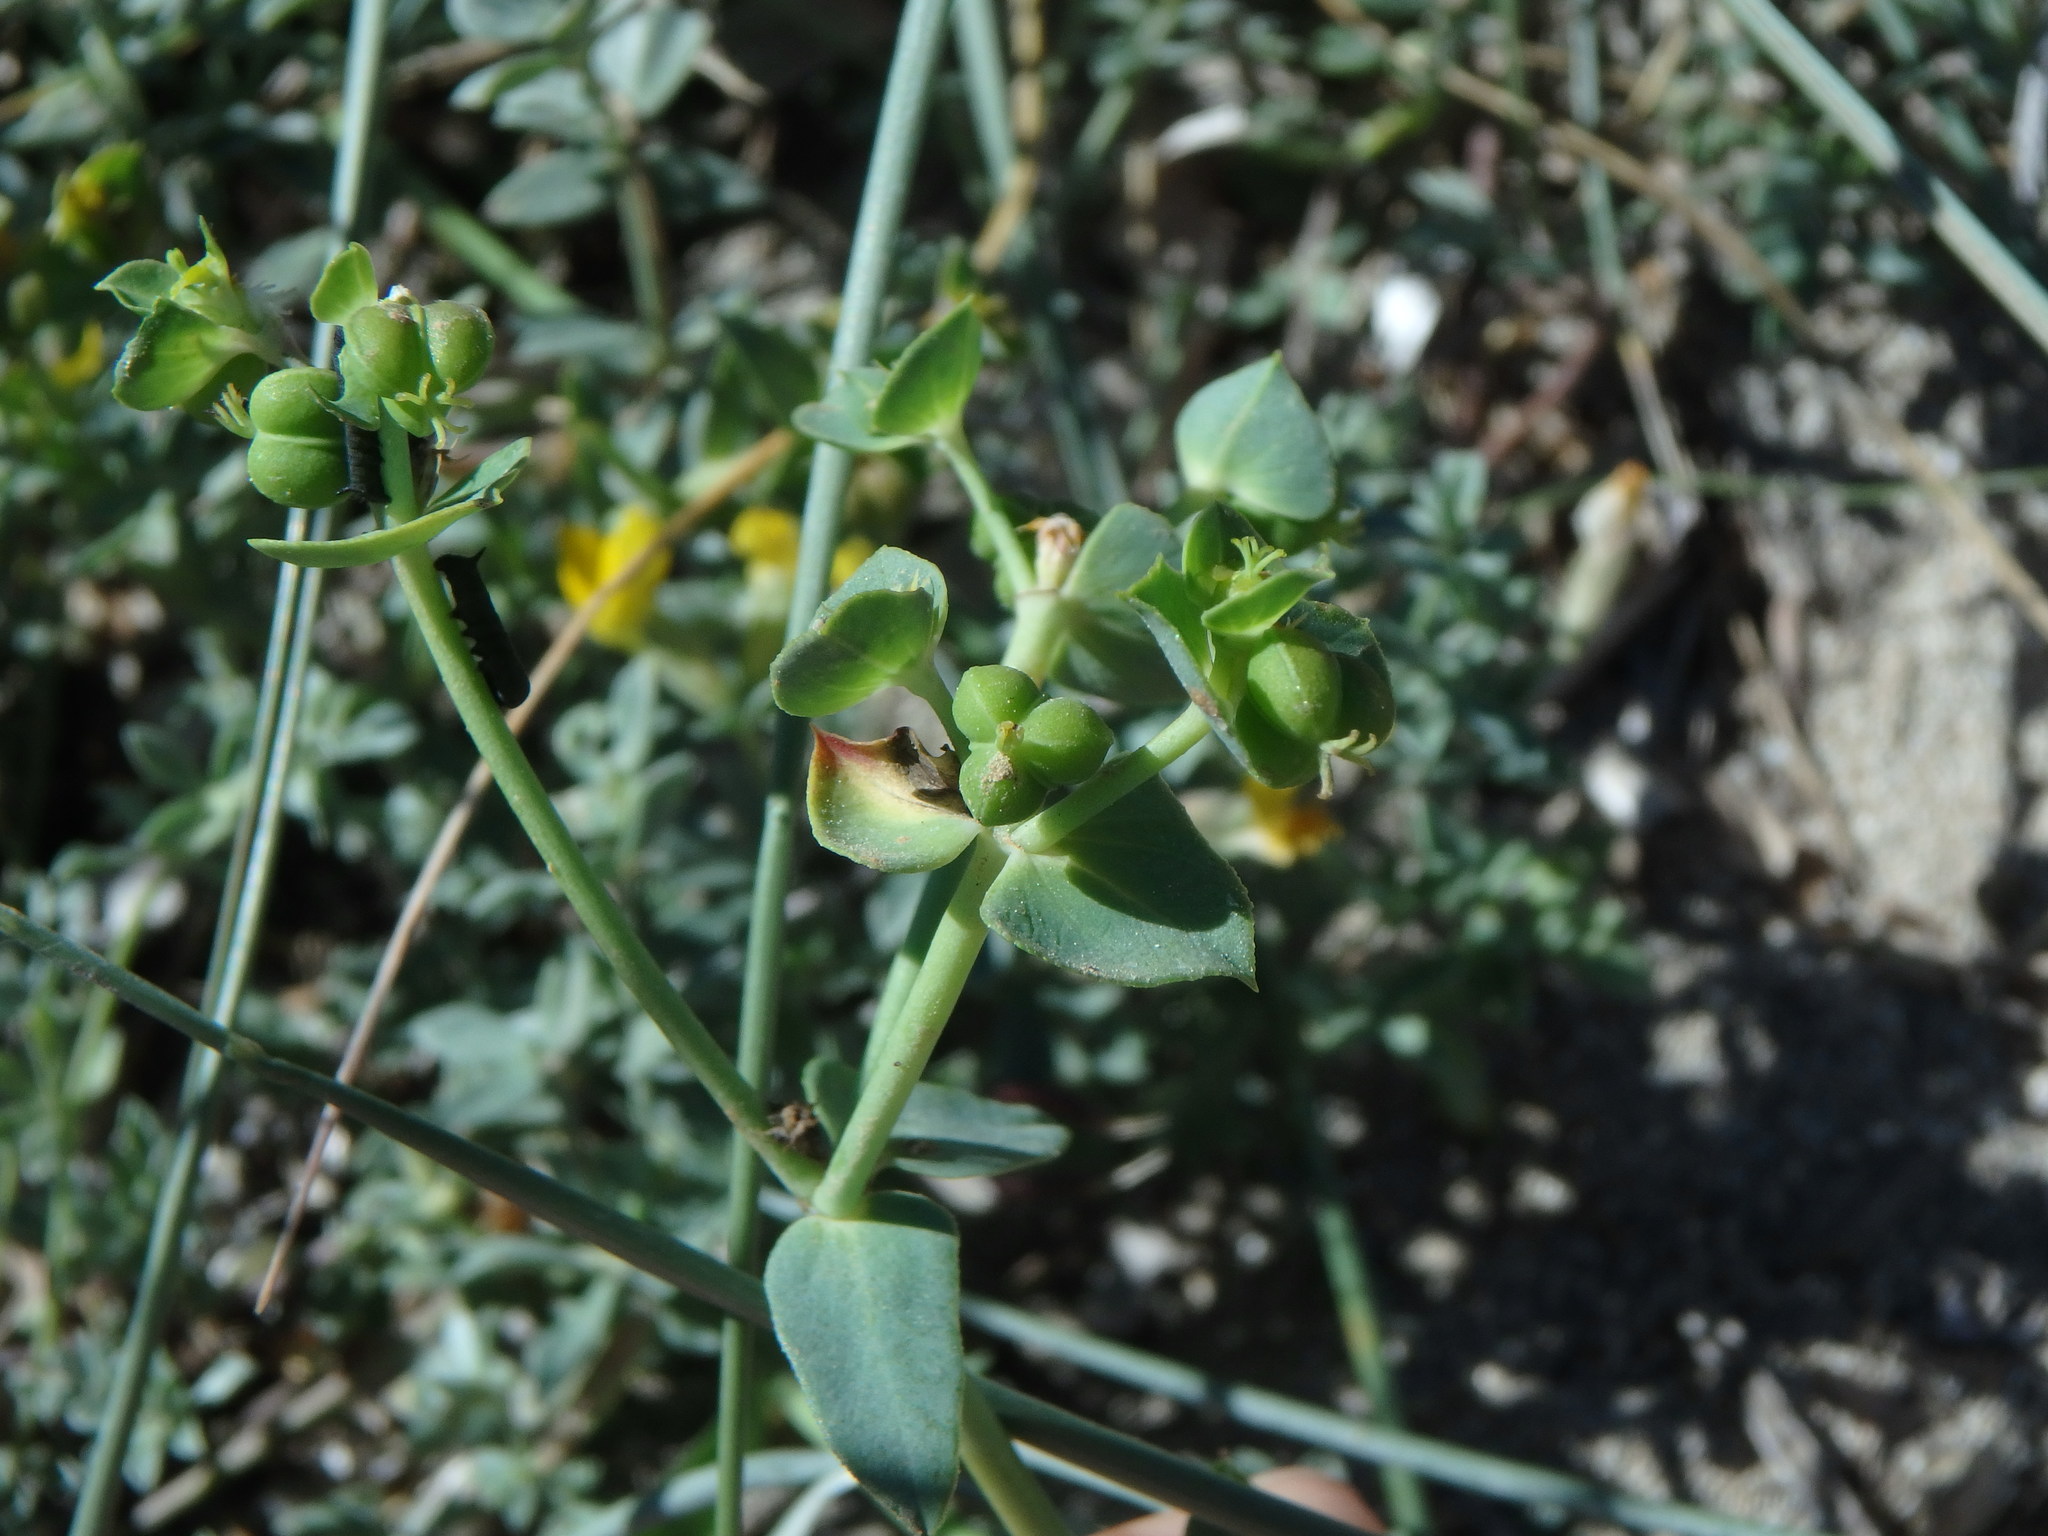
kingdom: Plantae
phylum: Tracheophyta
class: Magnoliopsida
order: Malpighiales
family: Euphorbiaceae
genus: Euphorbia
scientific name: Euphorbia terracina
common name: Geraldton carnation weed
